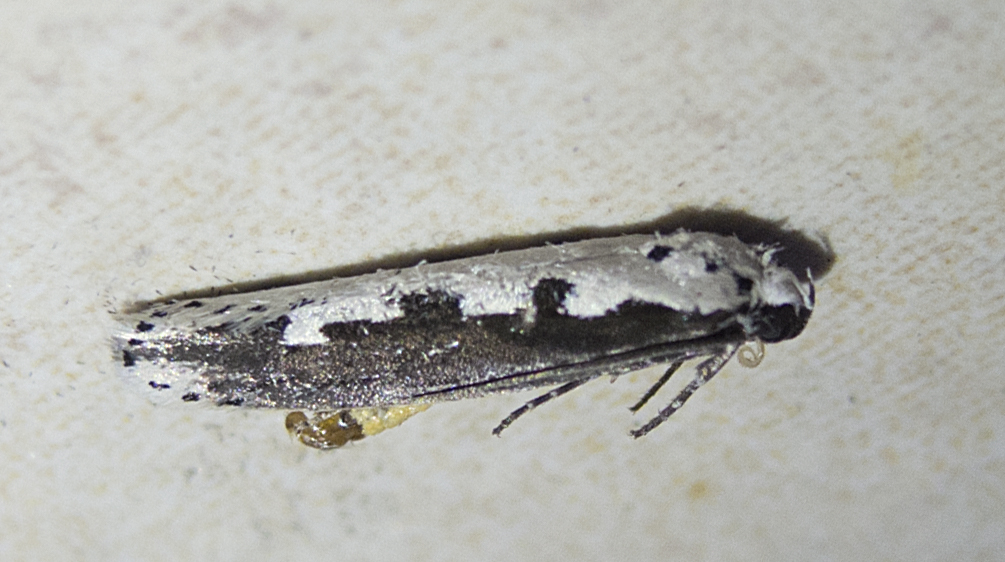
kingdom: Animalia
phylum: Arthropoda
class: Insecta
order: Lepidoptera
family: Ethmiidae
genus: Ethmia
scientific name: Ethmia bipunctella
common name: Bordered ermel
